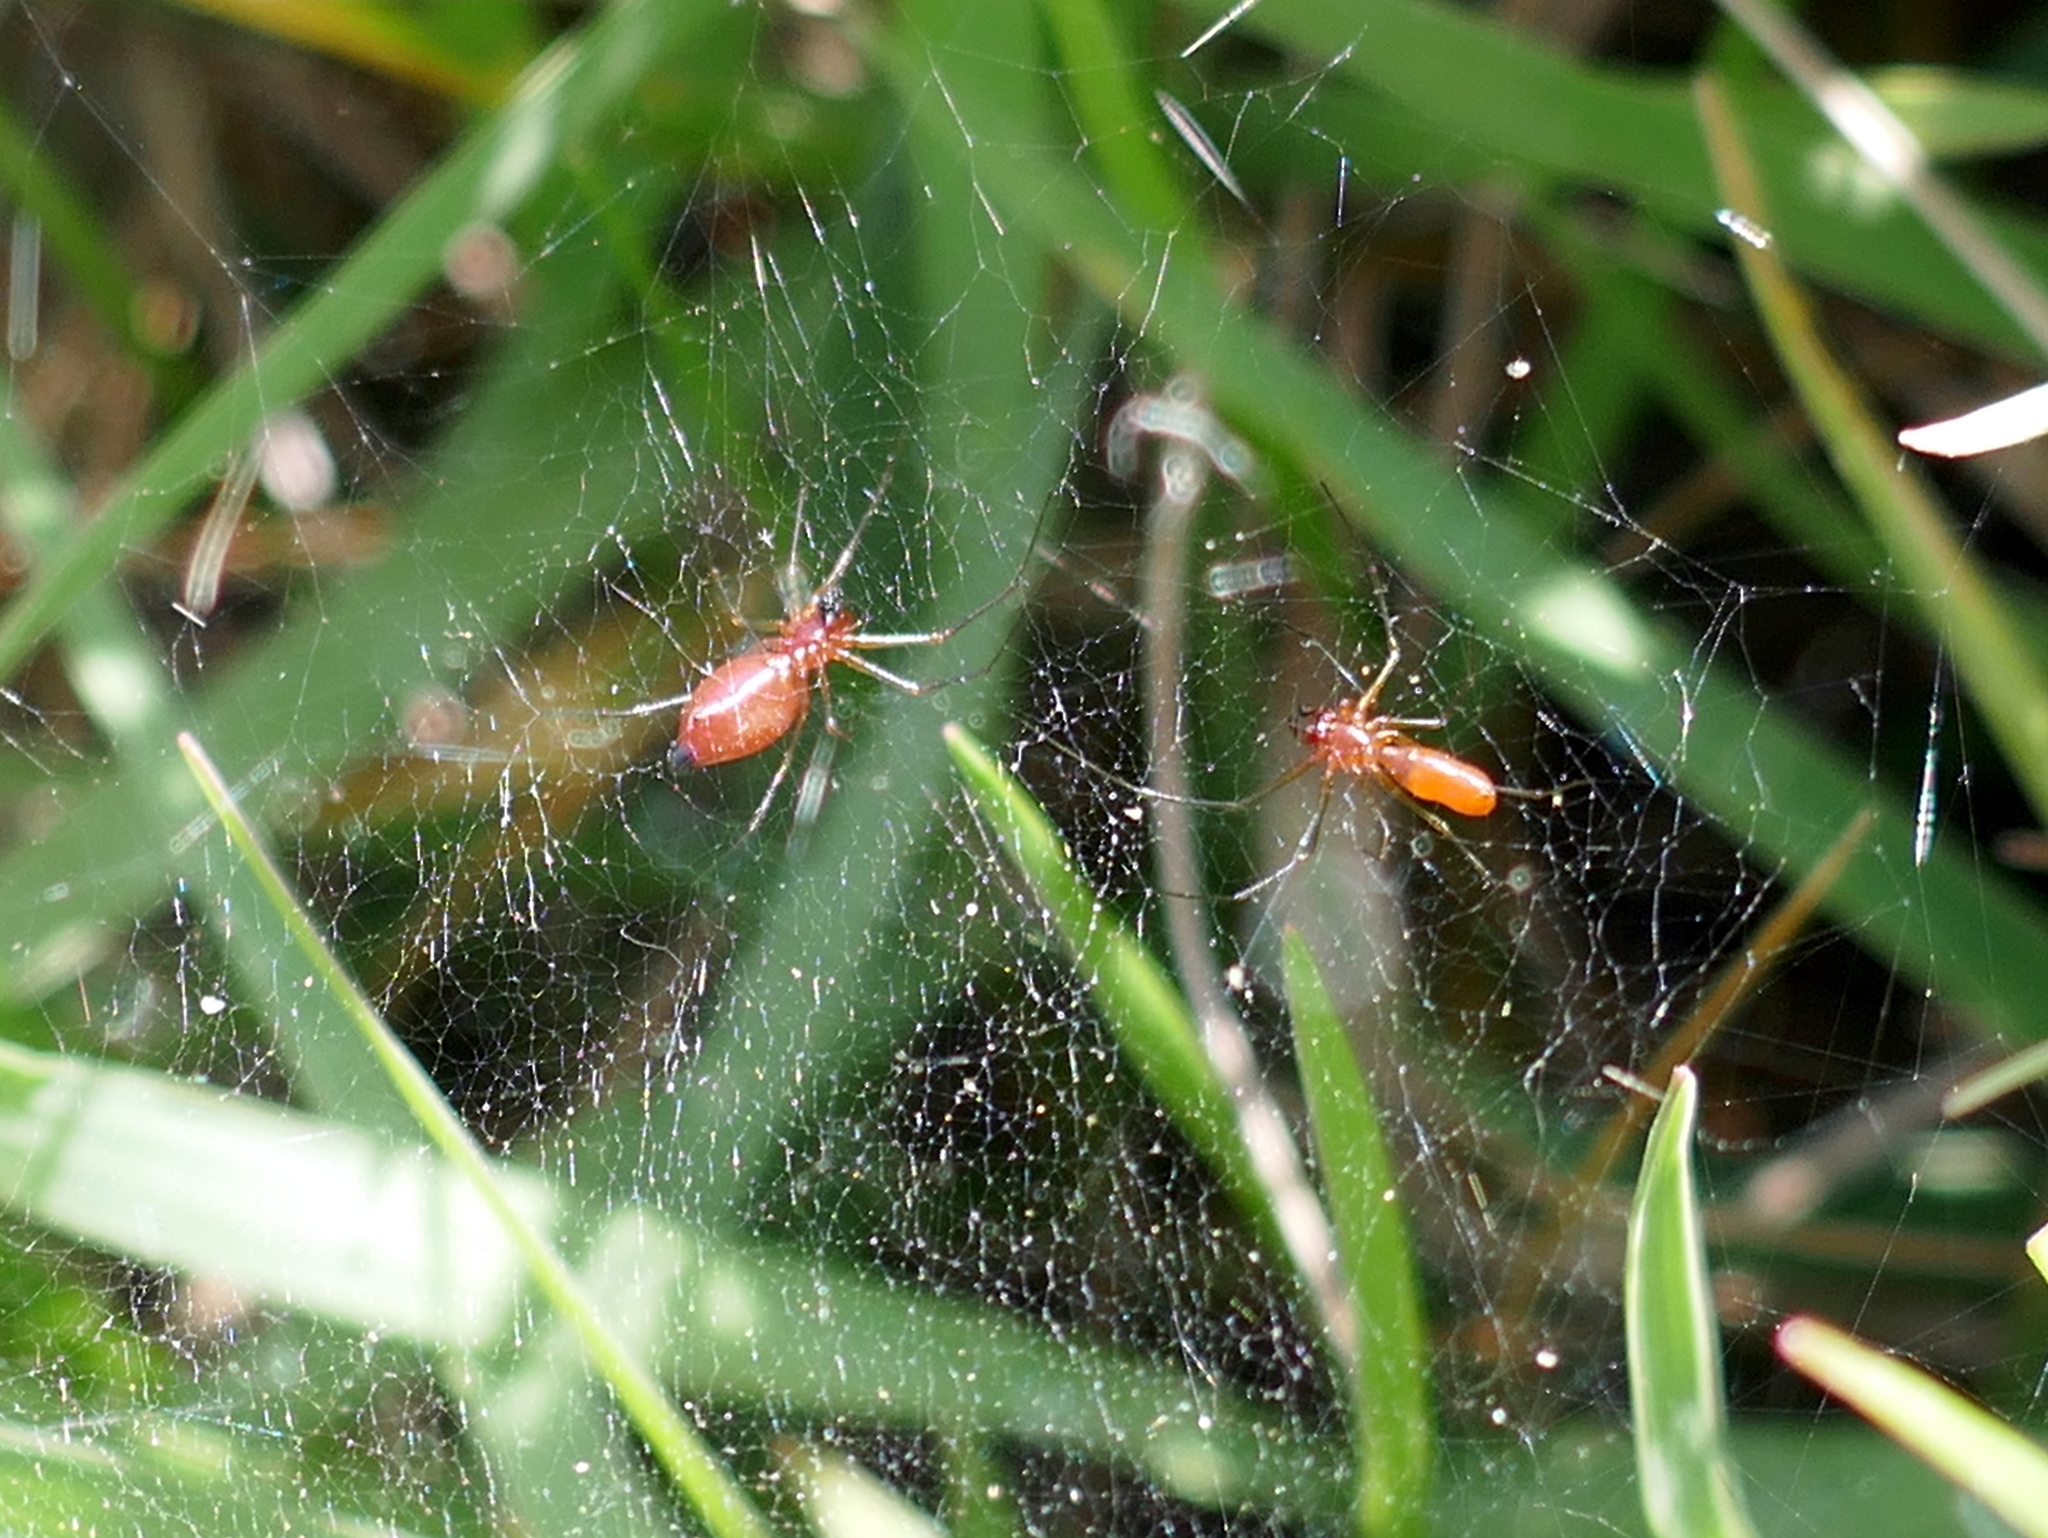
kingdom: Animalia
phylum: Arthropoda
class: Arachnida
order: Araneae
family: Linyphiidae
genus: Florinda
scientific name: Florinda coccinea
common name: Black-tailed red sheetweaver
